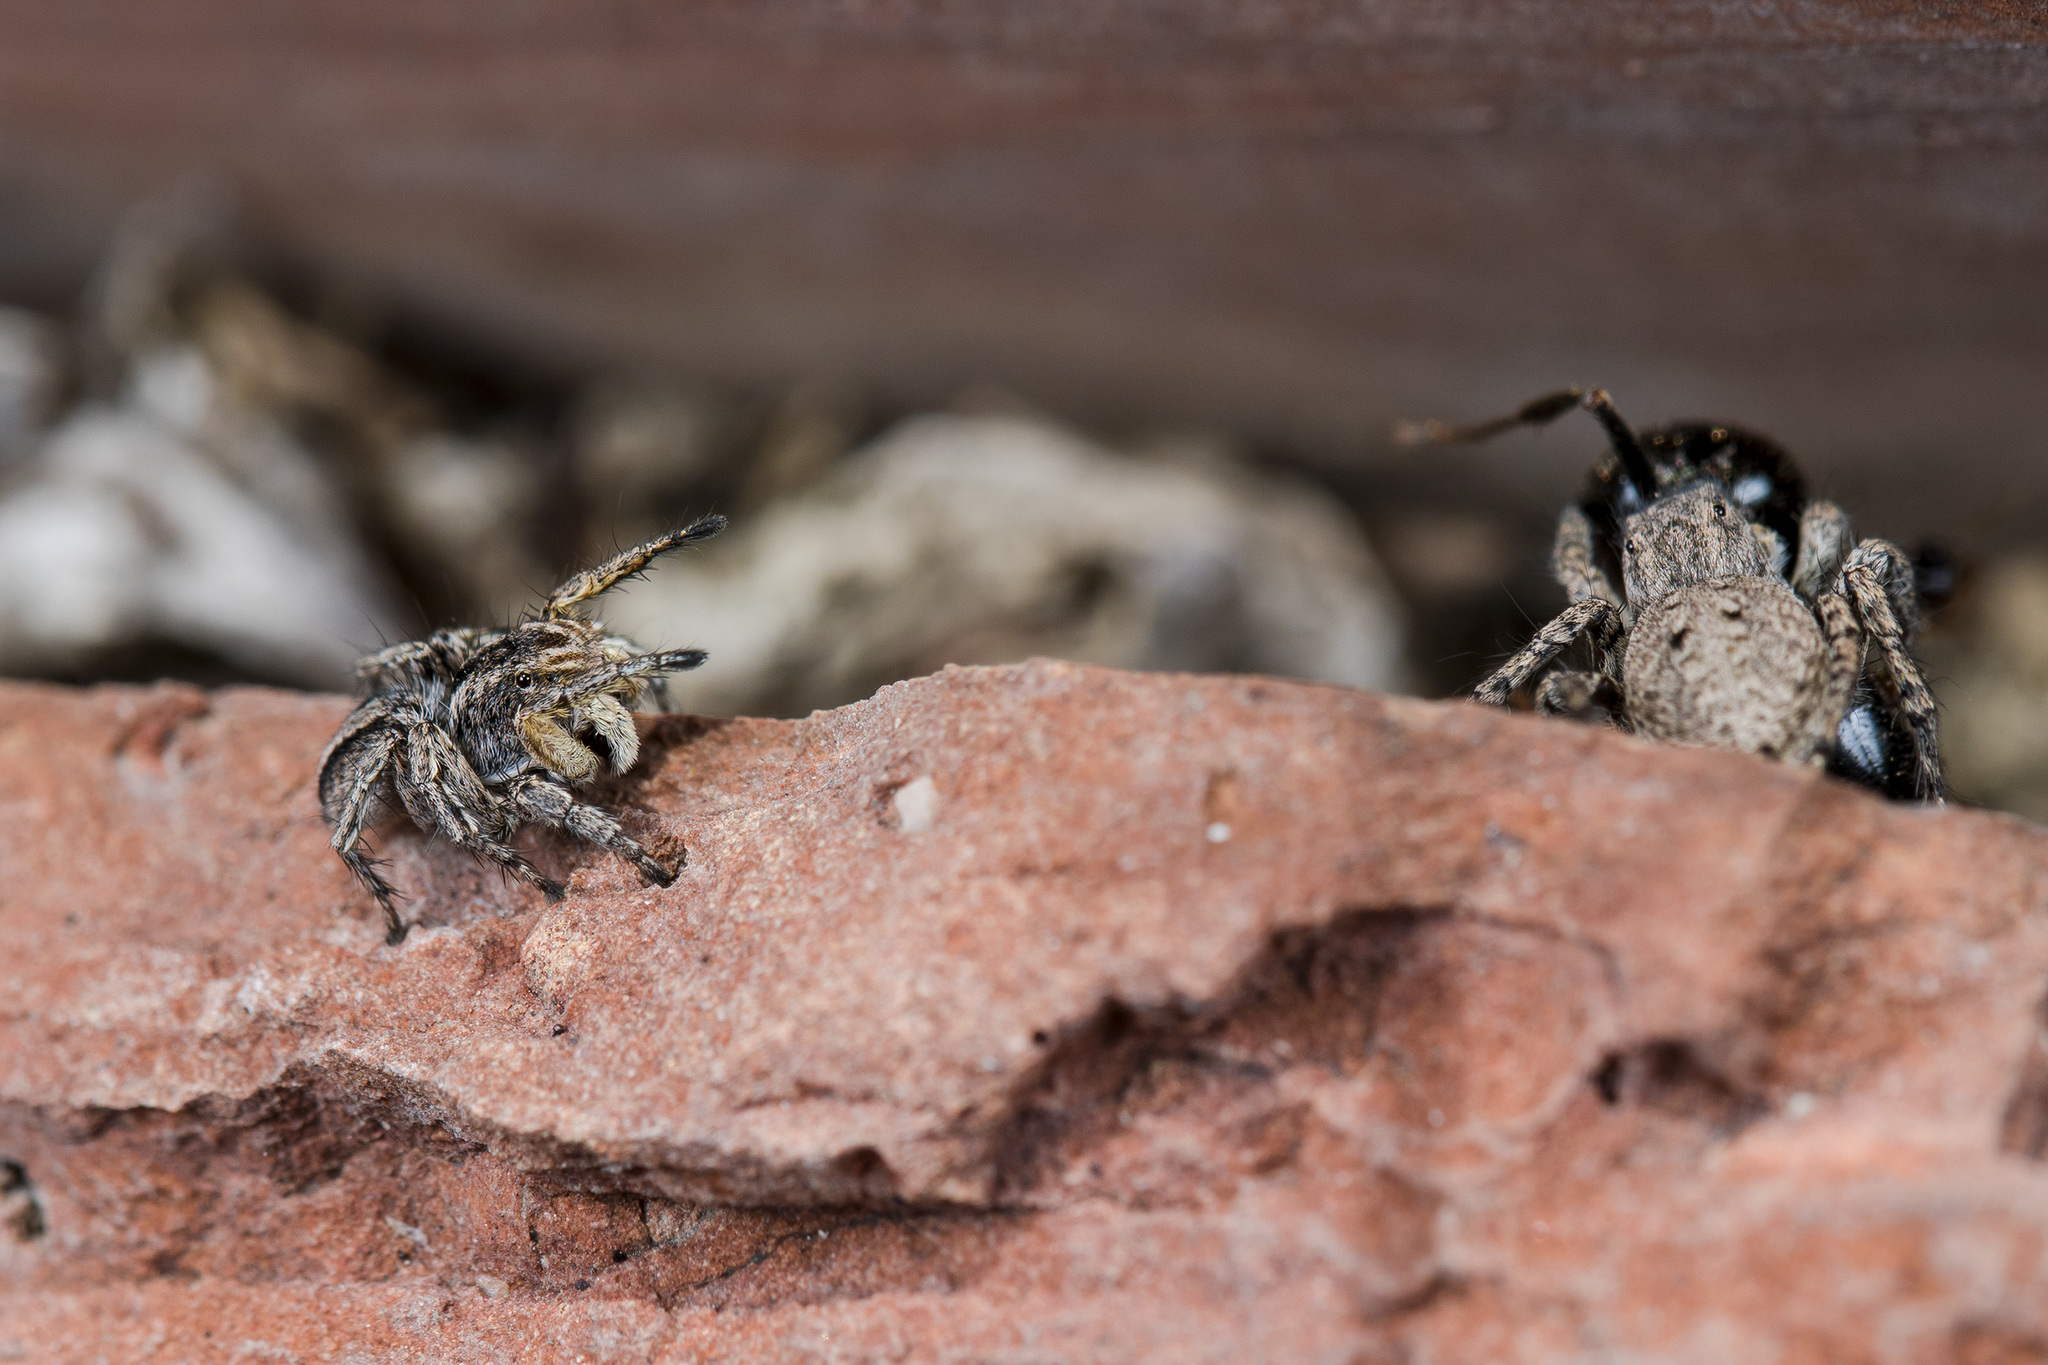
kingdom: Animalia
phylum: Arthropoda
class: Arachnida
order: Araneae
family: Salticidae
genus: Aelurillus
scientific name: Aelurillus v-insignitus
